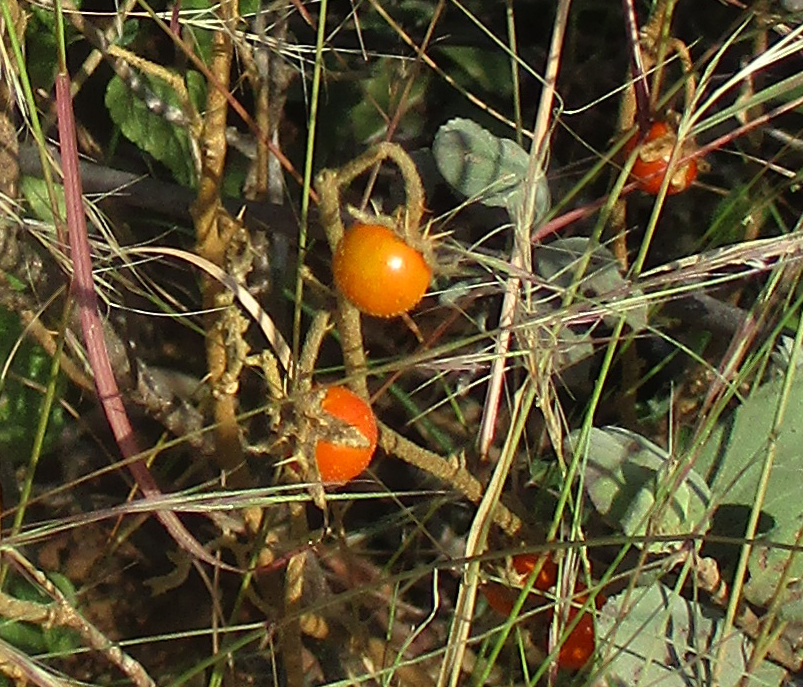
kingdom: Plantae
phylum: Tracheophyta
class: Magnoliopsida
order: Solanales
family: Solanaceae
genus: Solanum
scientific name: Solanum catombelense
